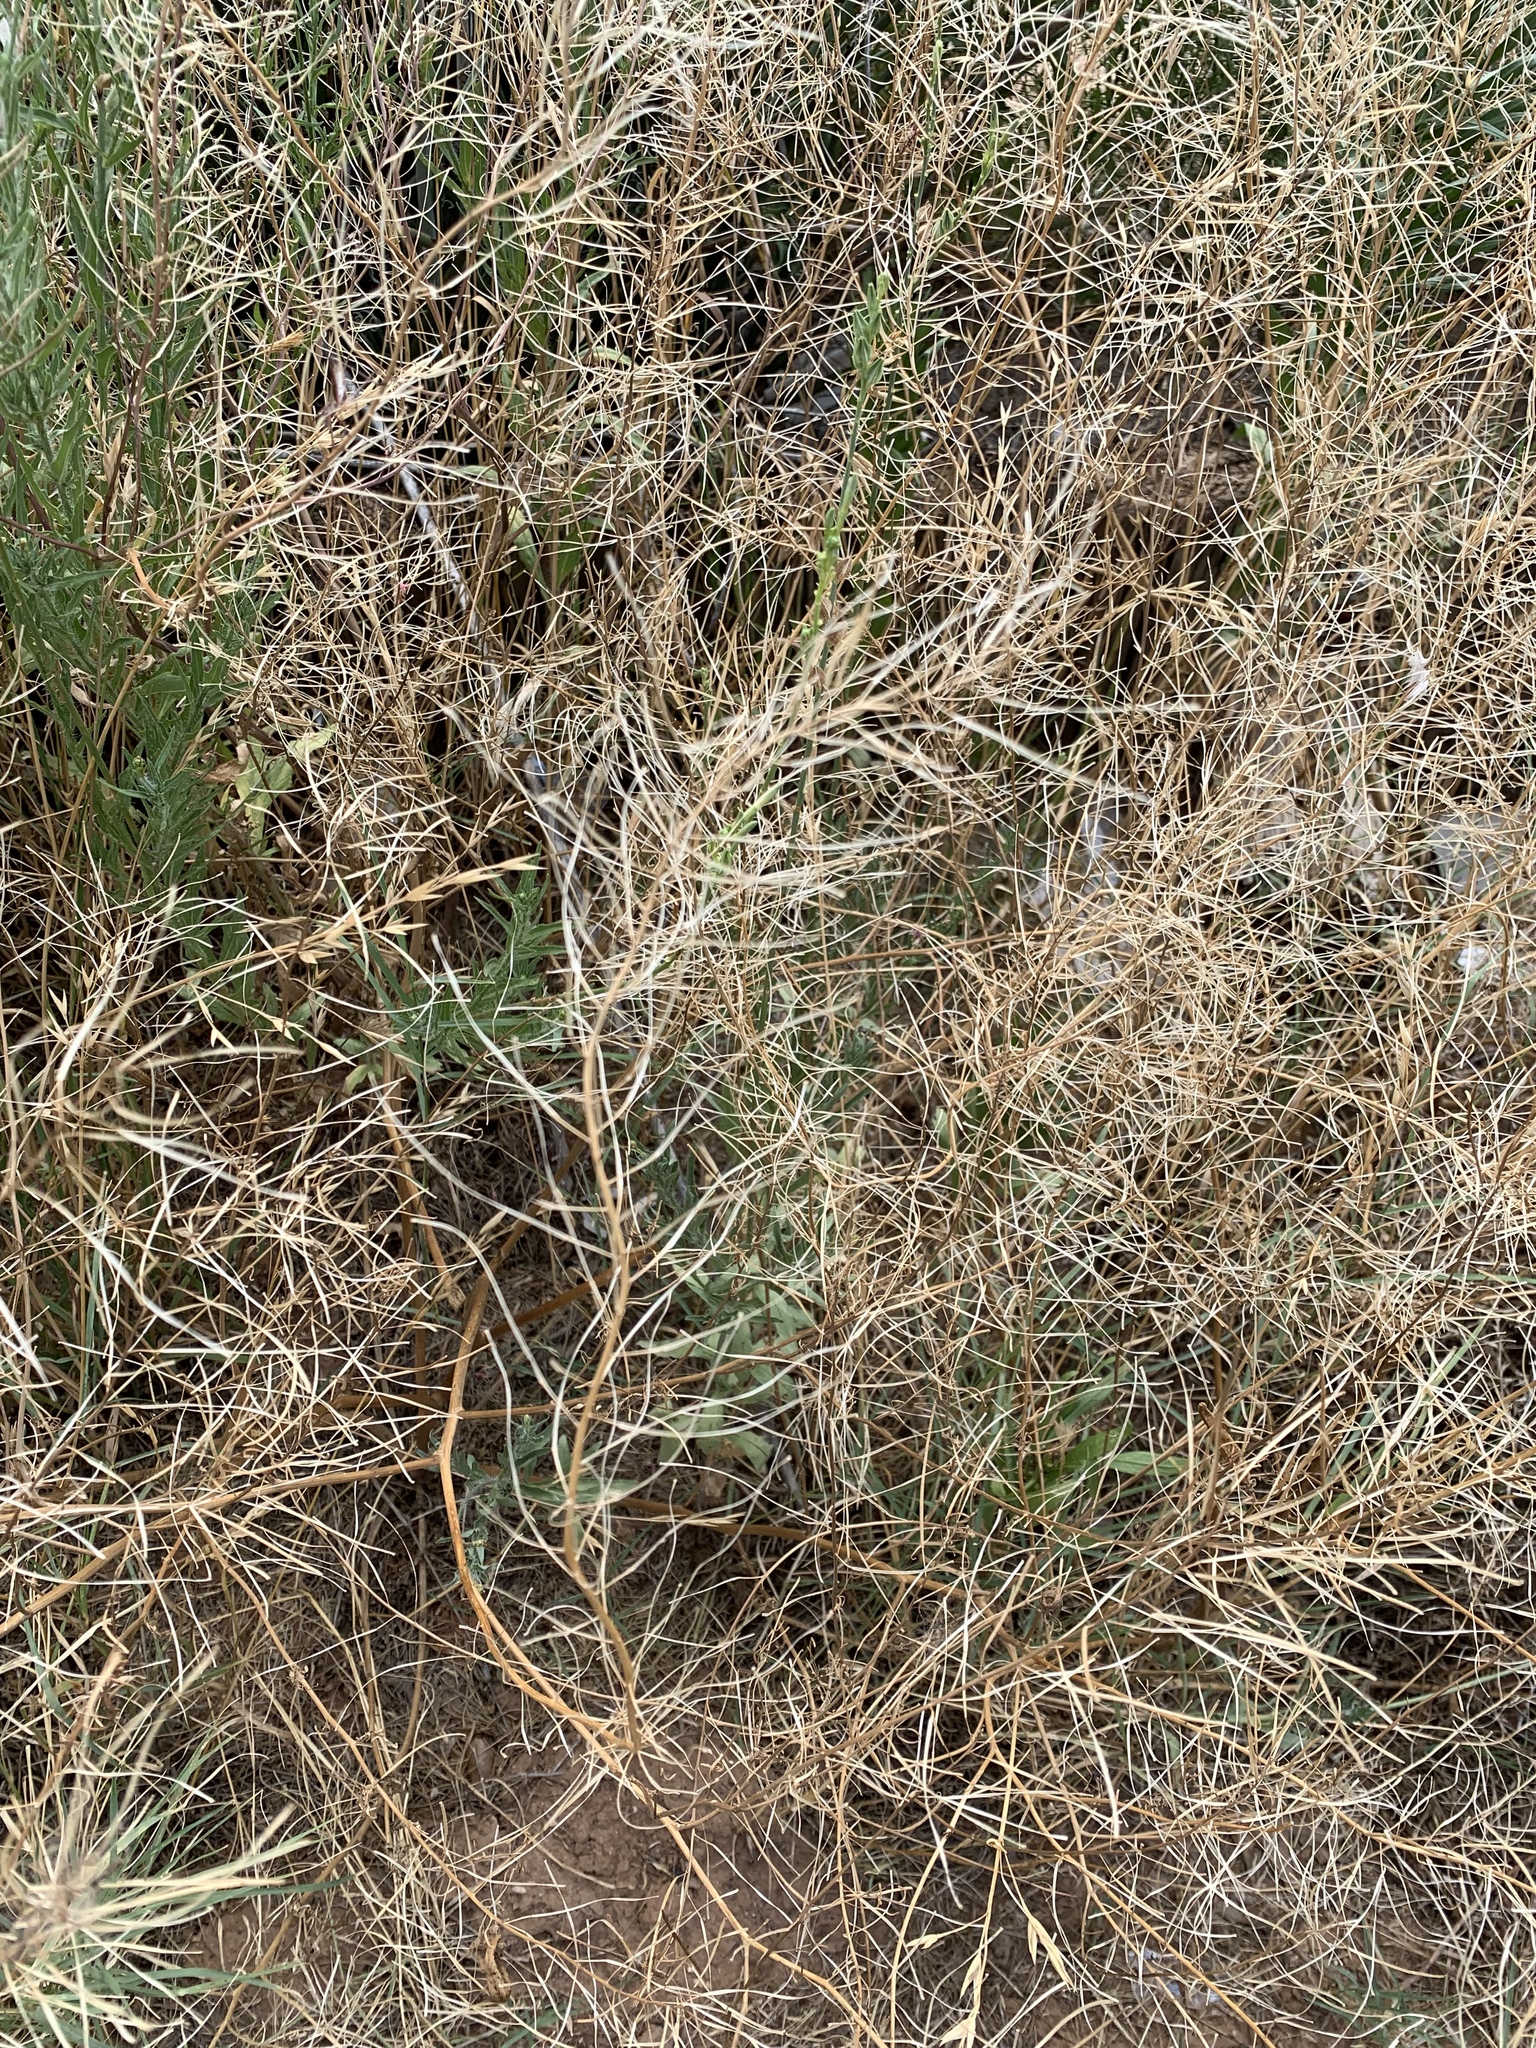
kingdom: Plantae
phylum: Tracheophyta
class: Magnoliopsida
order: Brassicales
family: Brassicaceae
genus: Sisymbrium
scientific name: Sisymbrium irio
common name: London rocket
